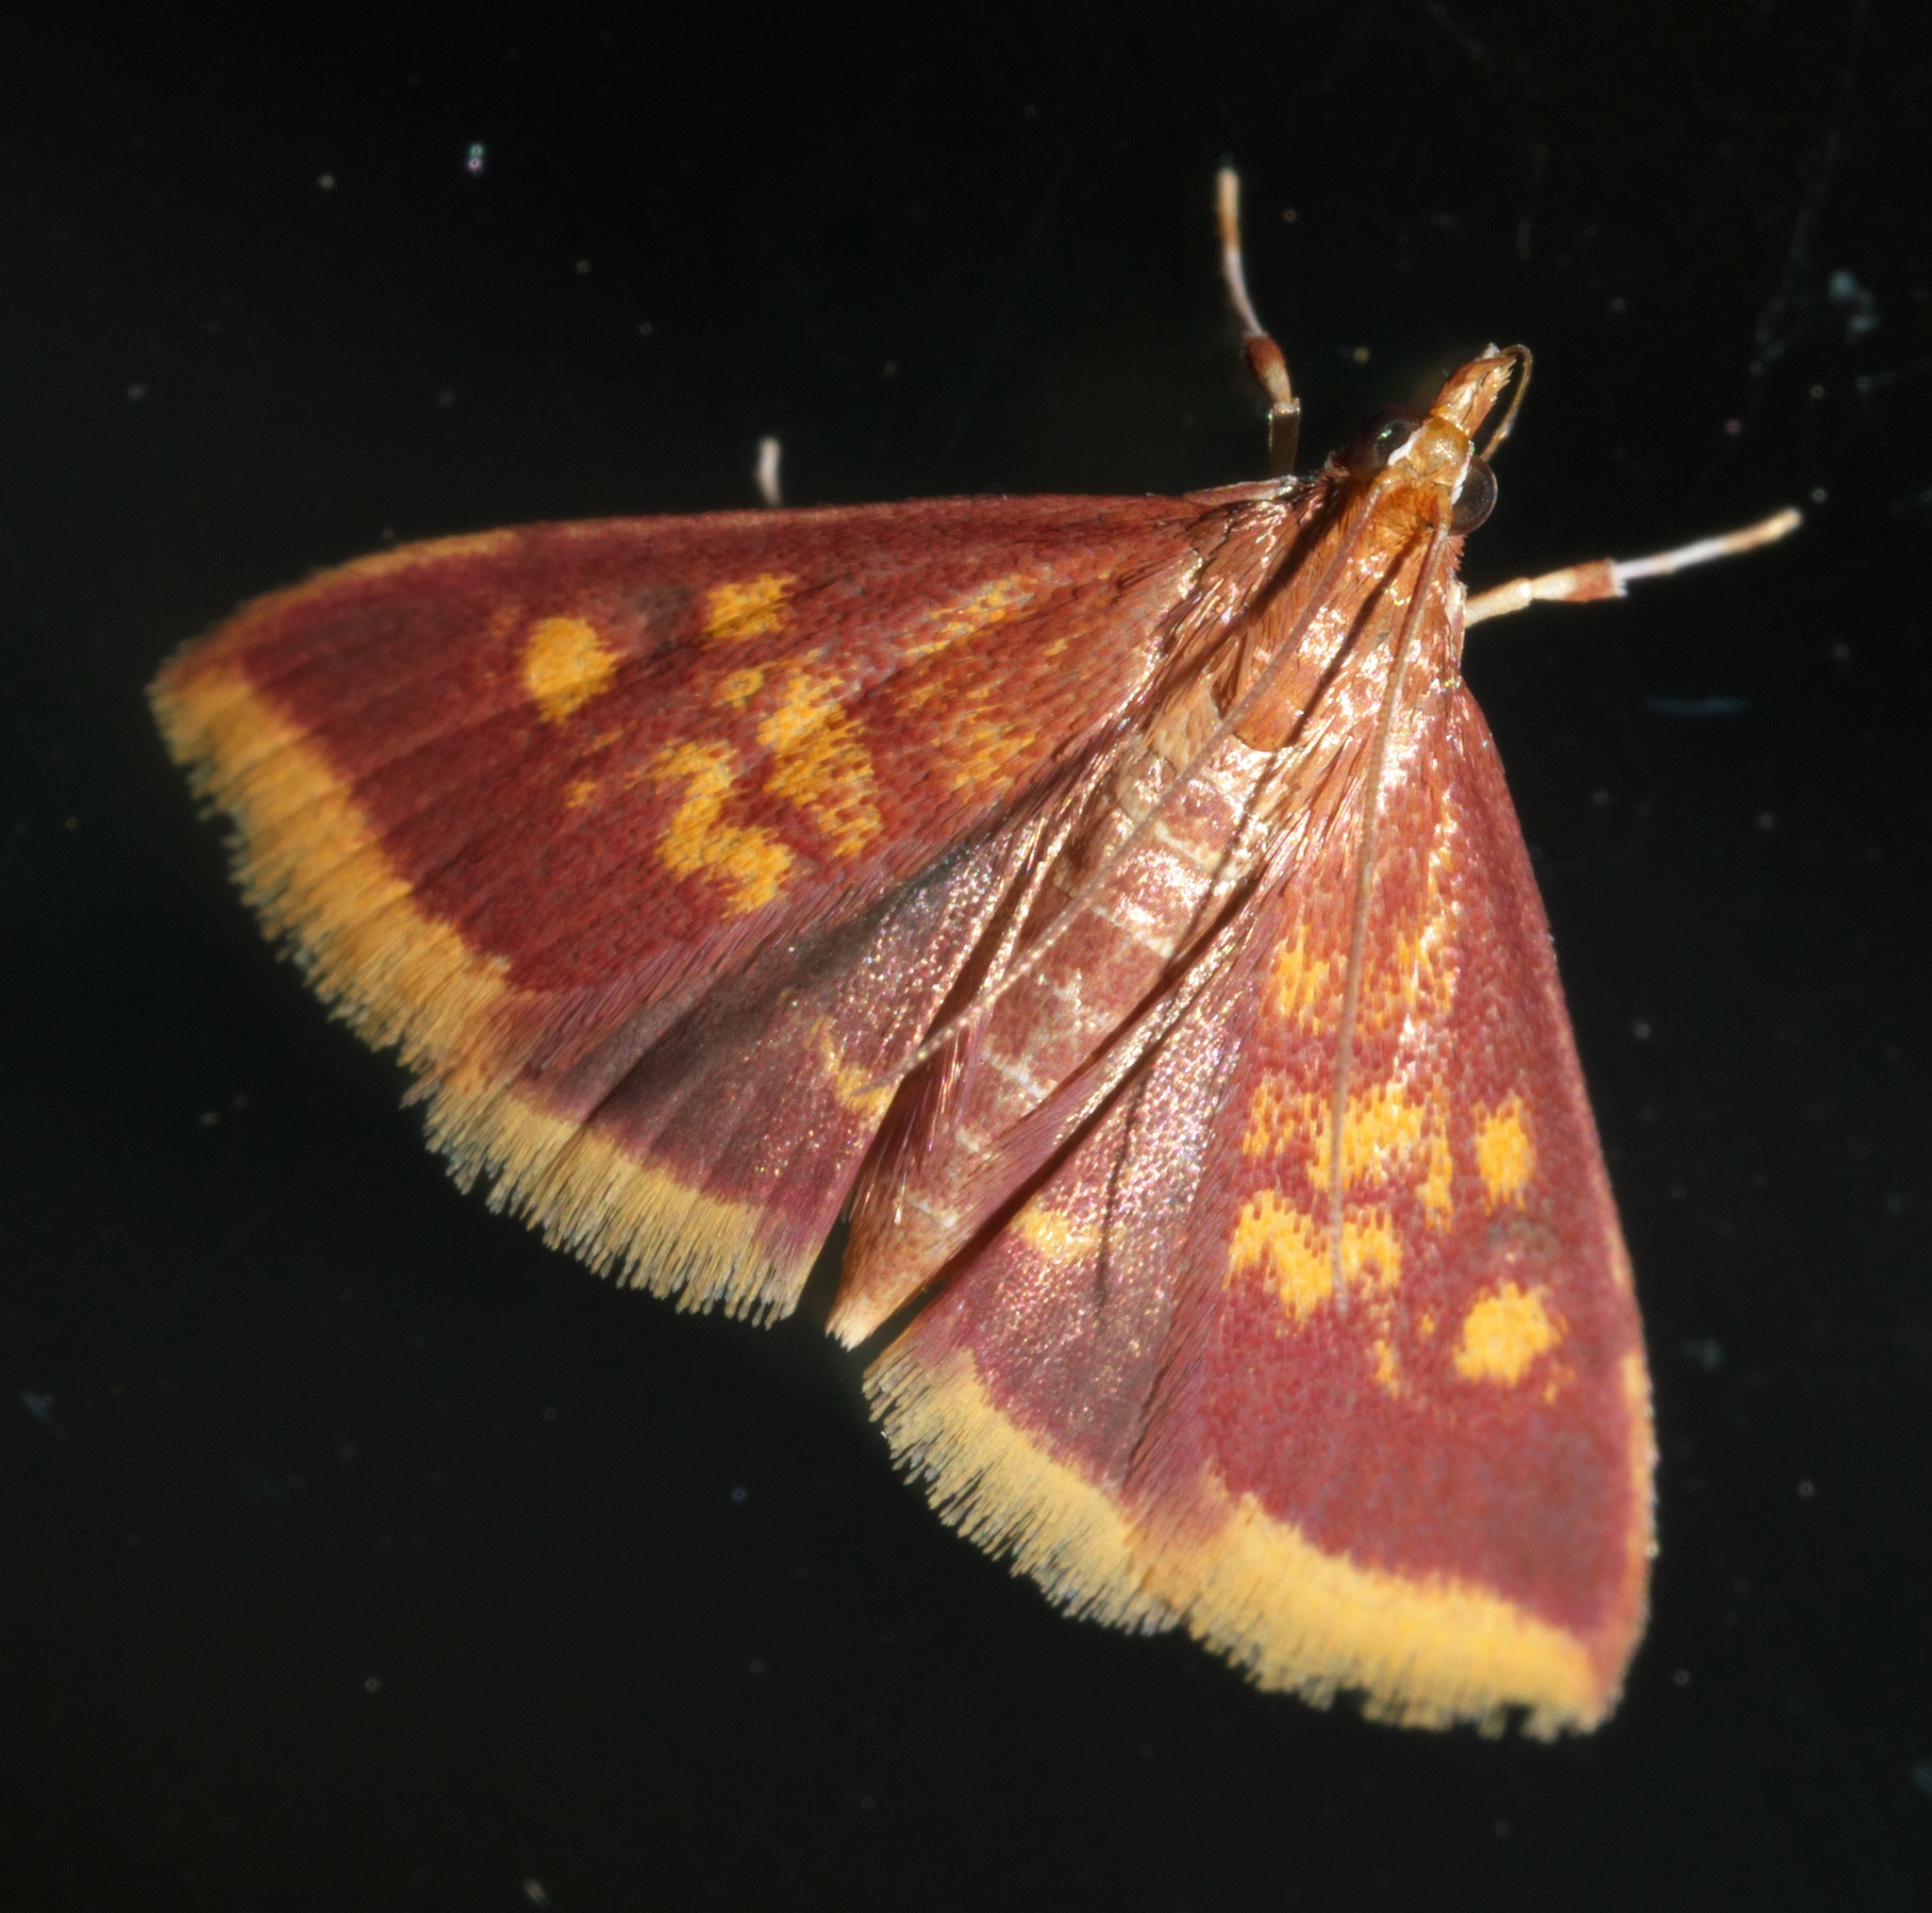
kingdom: Animalia
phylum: Arthropoda
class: Insecta
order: Lepidoptera
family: Crambidae
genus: Pyrausta
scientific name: Pyrausta acrionalis
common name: Mint-loving pyrausta moth
